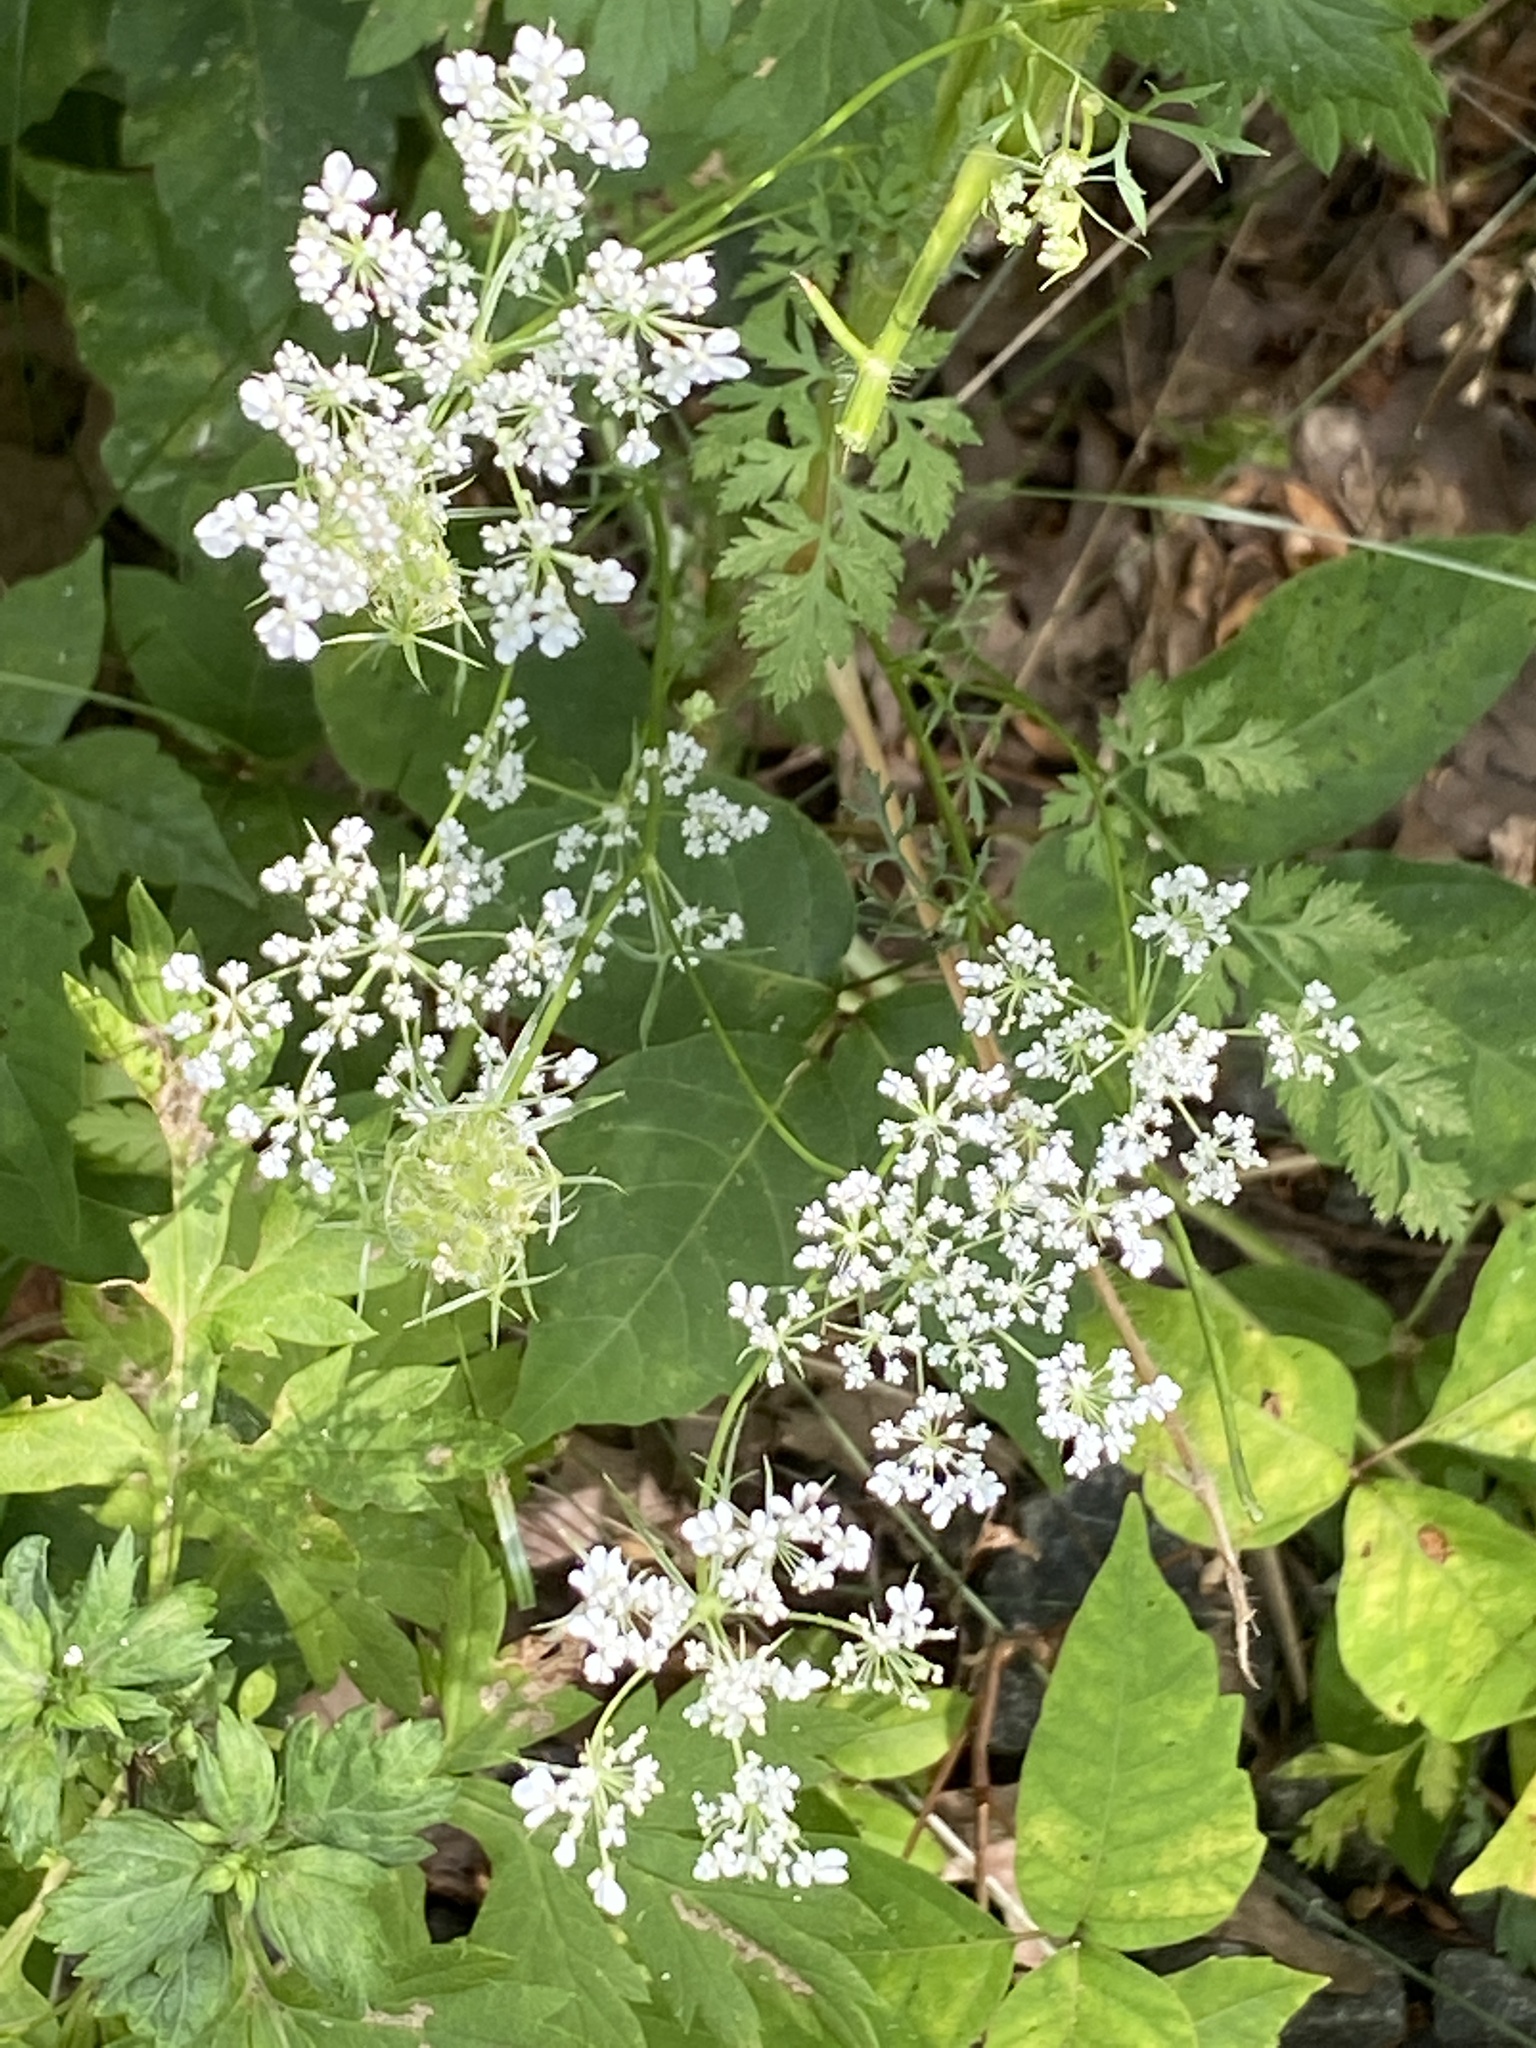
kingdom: Plantae
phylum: Tracheophyta
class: Magnoliopsida
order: Apiales
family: Apiaceae
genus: Daucus
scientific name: Daucus carota
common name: Wild carrot
